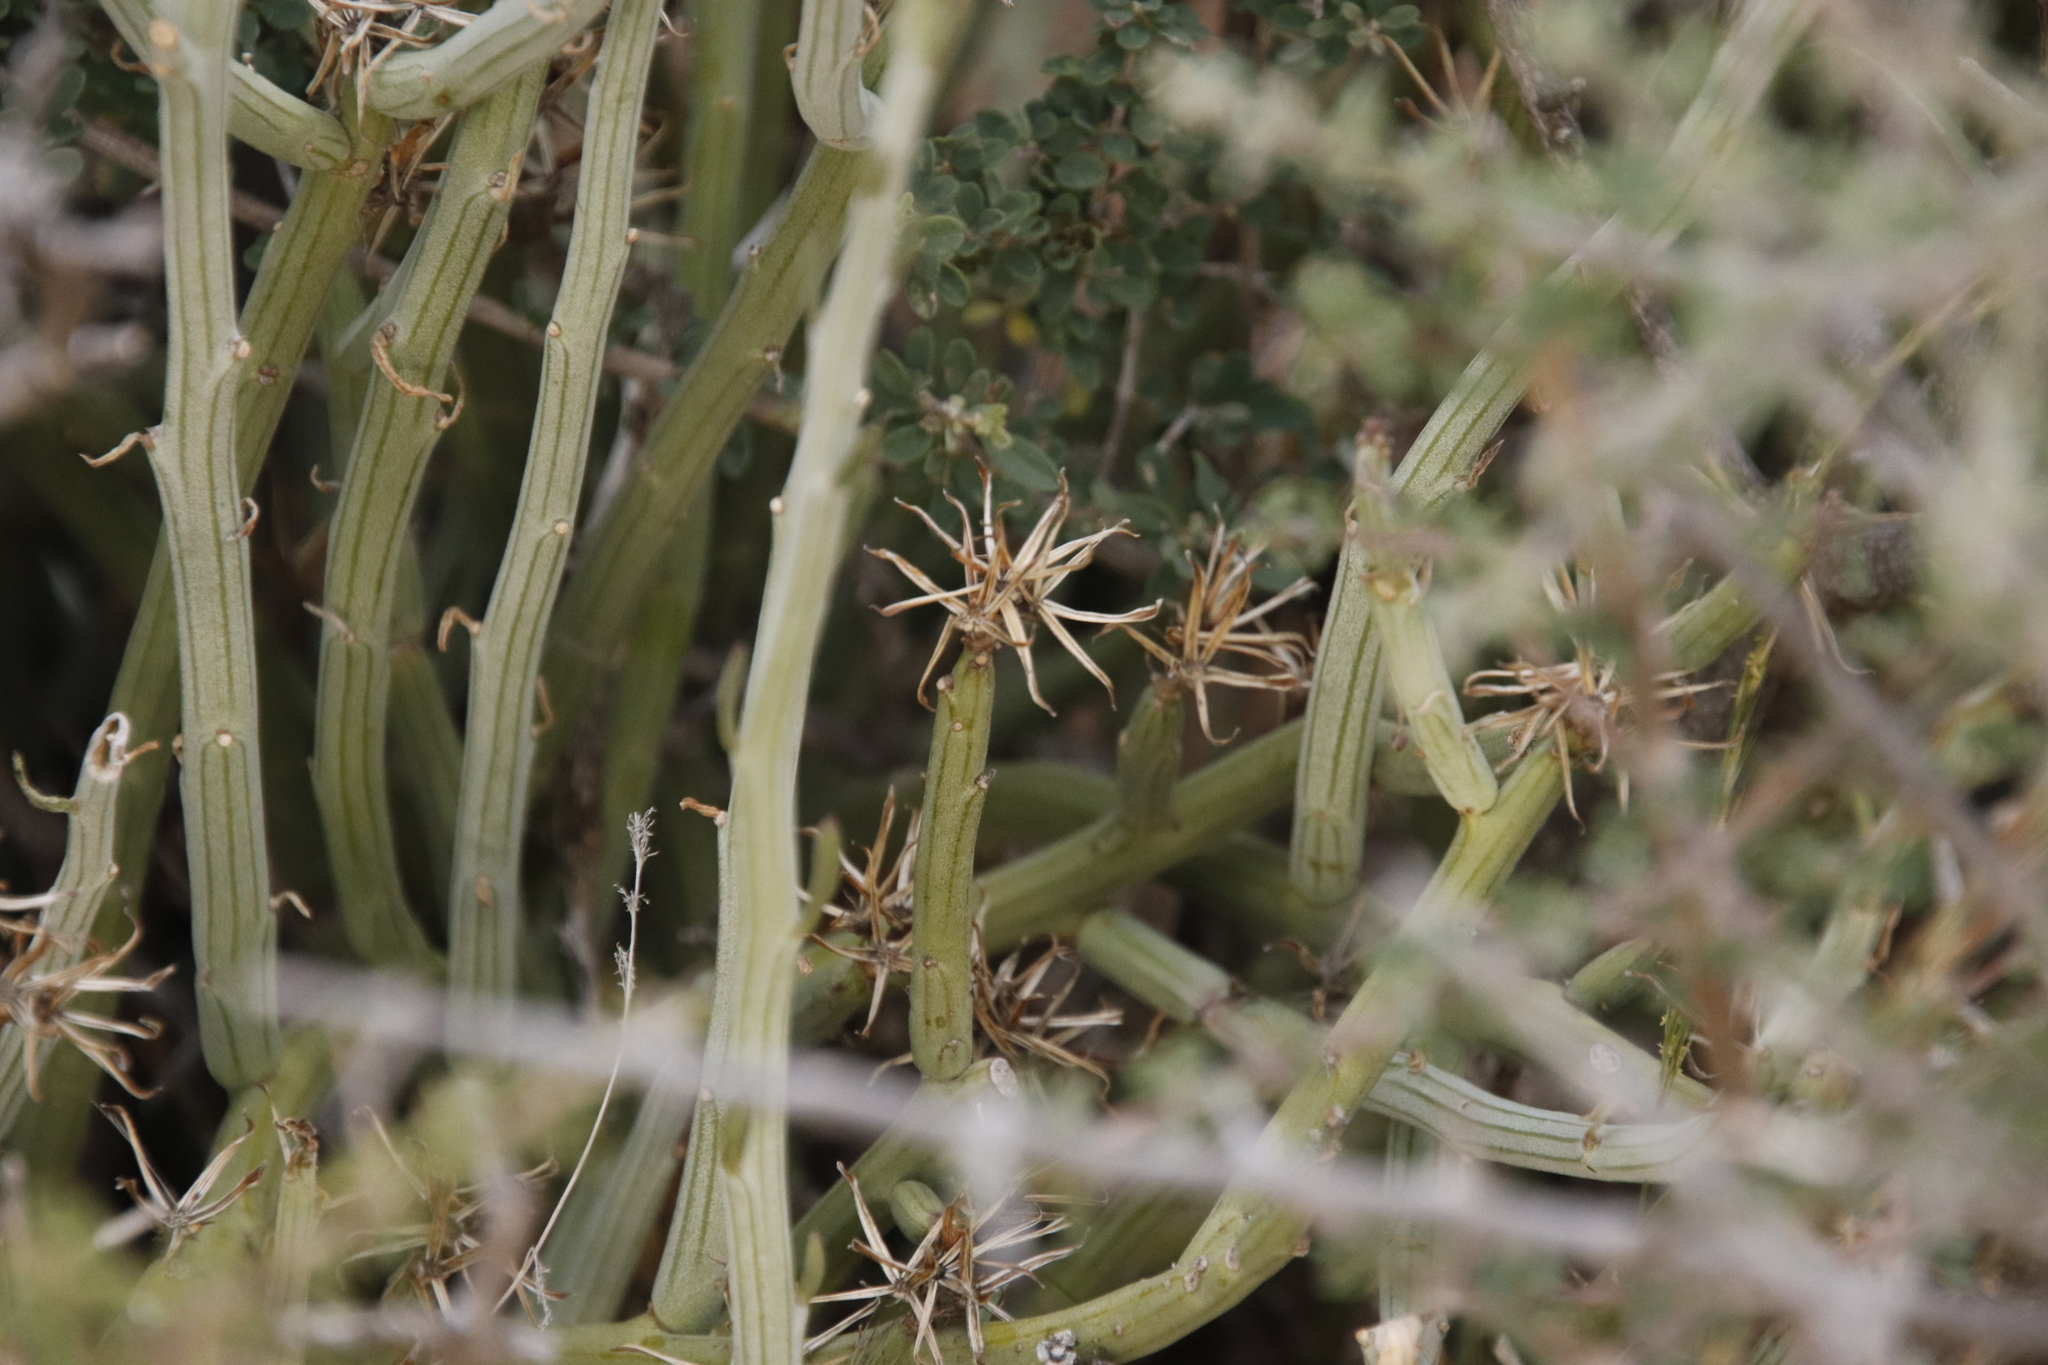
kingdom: Plantae
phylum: Tracheophyta
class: Magnoliopsida
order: Asterales
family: Asteraceae
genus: Curio
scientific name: Curio avasimontanus
